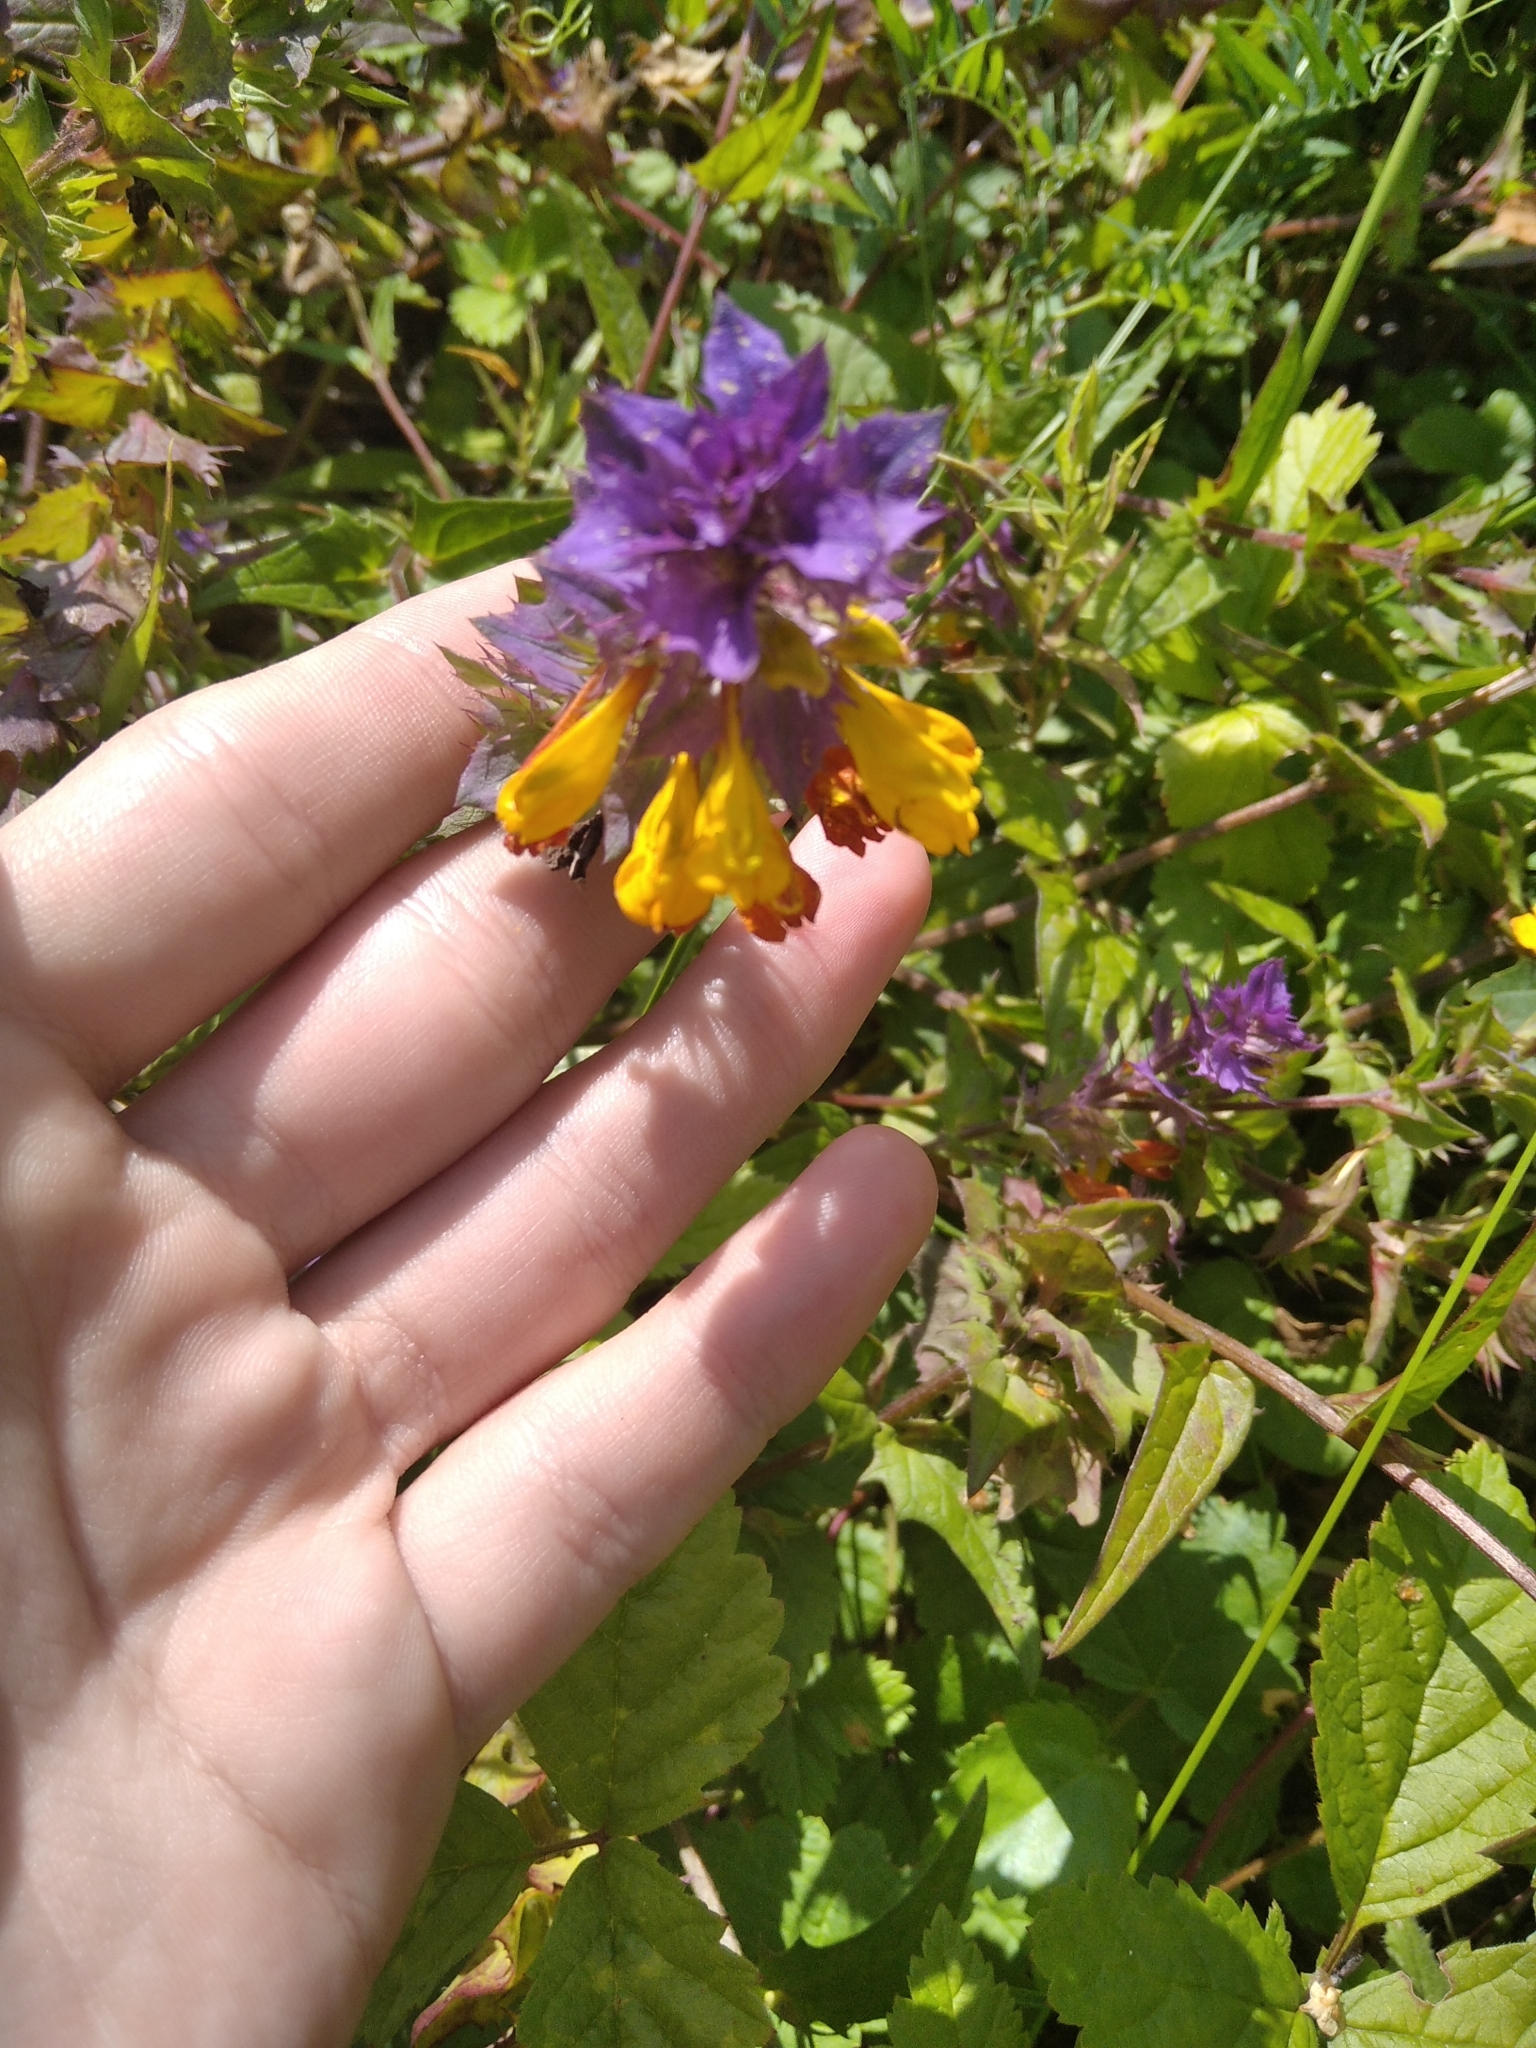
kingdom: Plantae
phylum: Tracheophyta
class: Magnoliopsida
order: Lamiales
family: Orobanchaceae
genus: Melampyrum
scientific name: Melampyrum nemorosum
